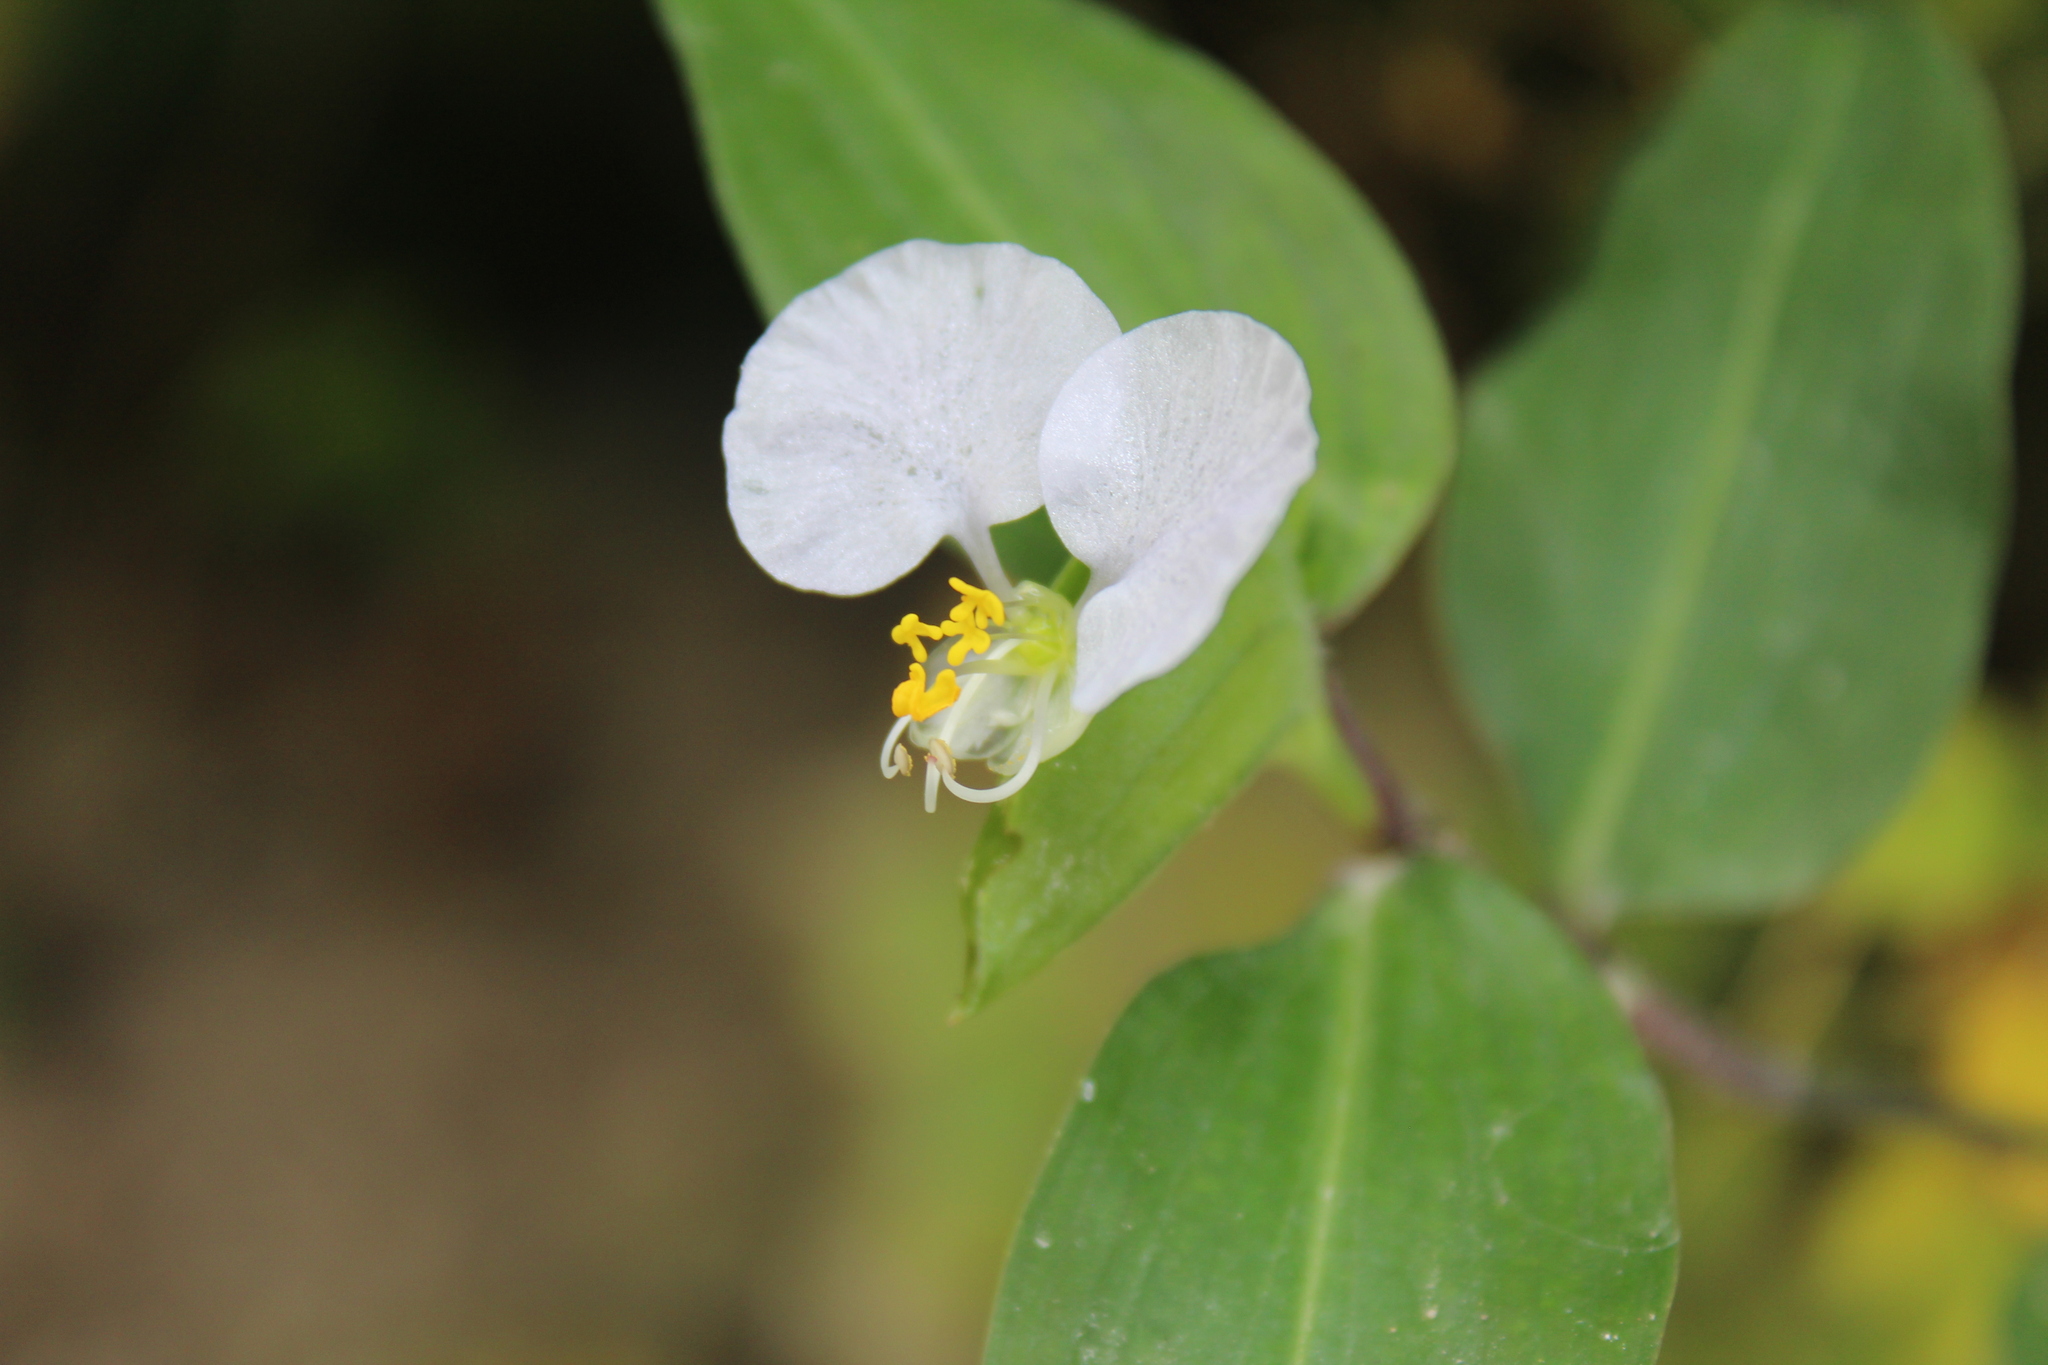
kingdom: Plantae
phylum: Tracheophyta
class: Liliopsida
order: Commelinales
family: Commelinaceae
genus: Commelina
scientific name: Commelina erecta
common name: Blousel blommetjie
